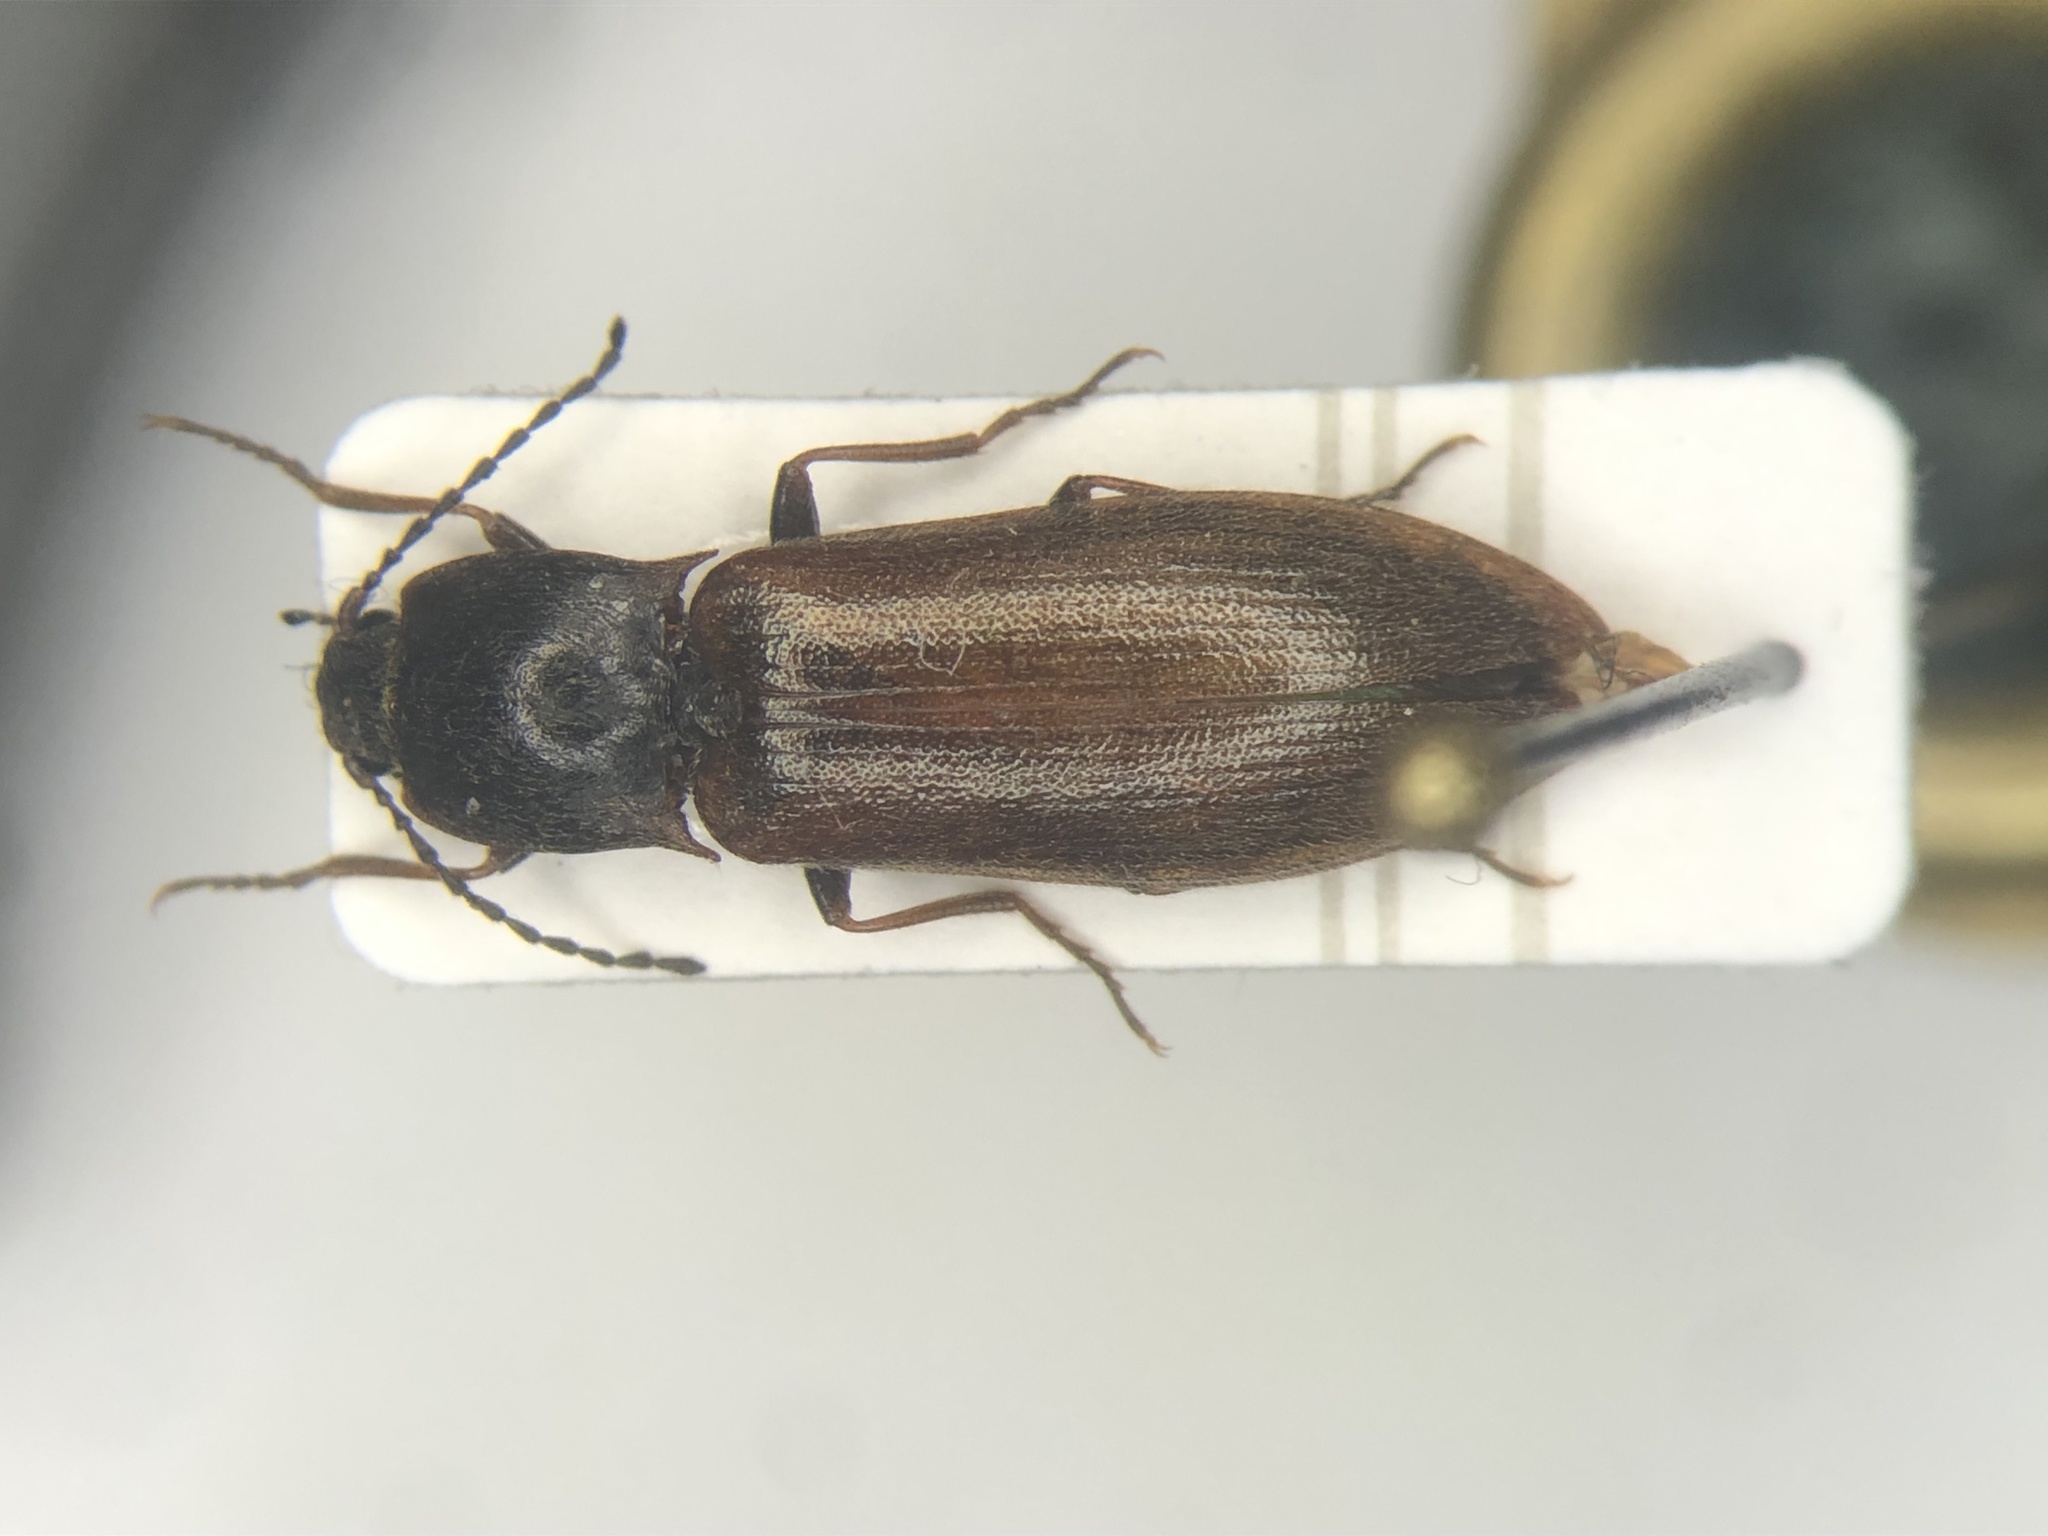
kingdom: Animalia
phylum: Arthropoda
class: Insecta
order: Coleoptera
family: Elateridae
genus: Metanomus
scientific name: Metanomus insidiosus
